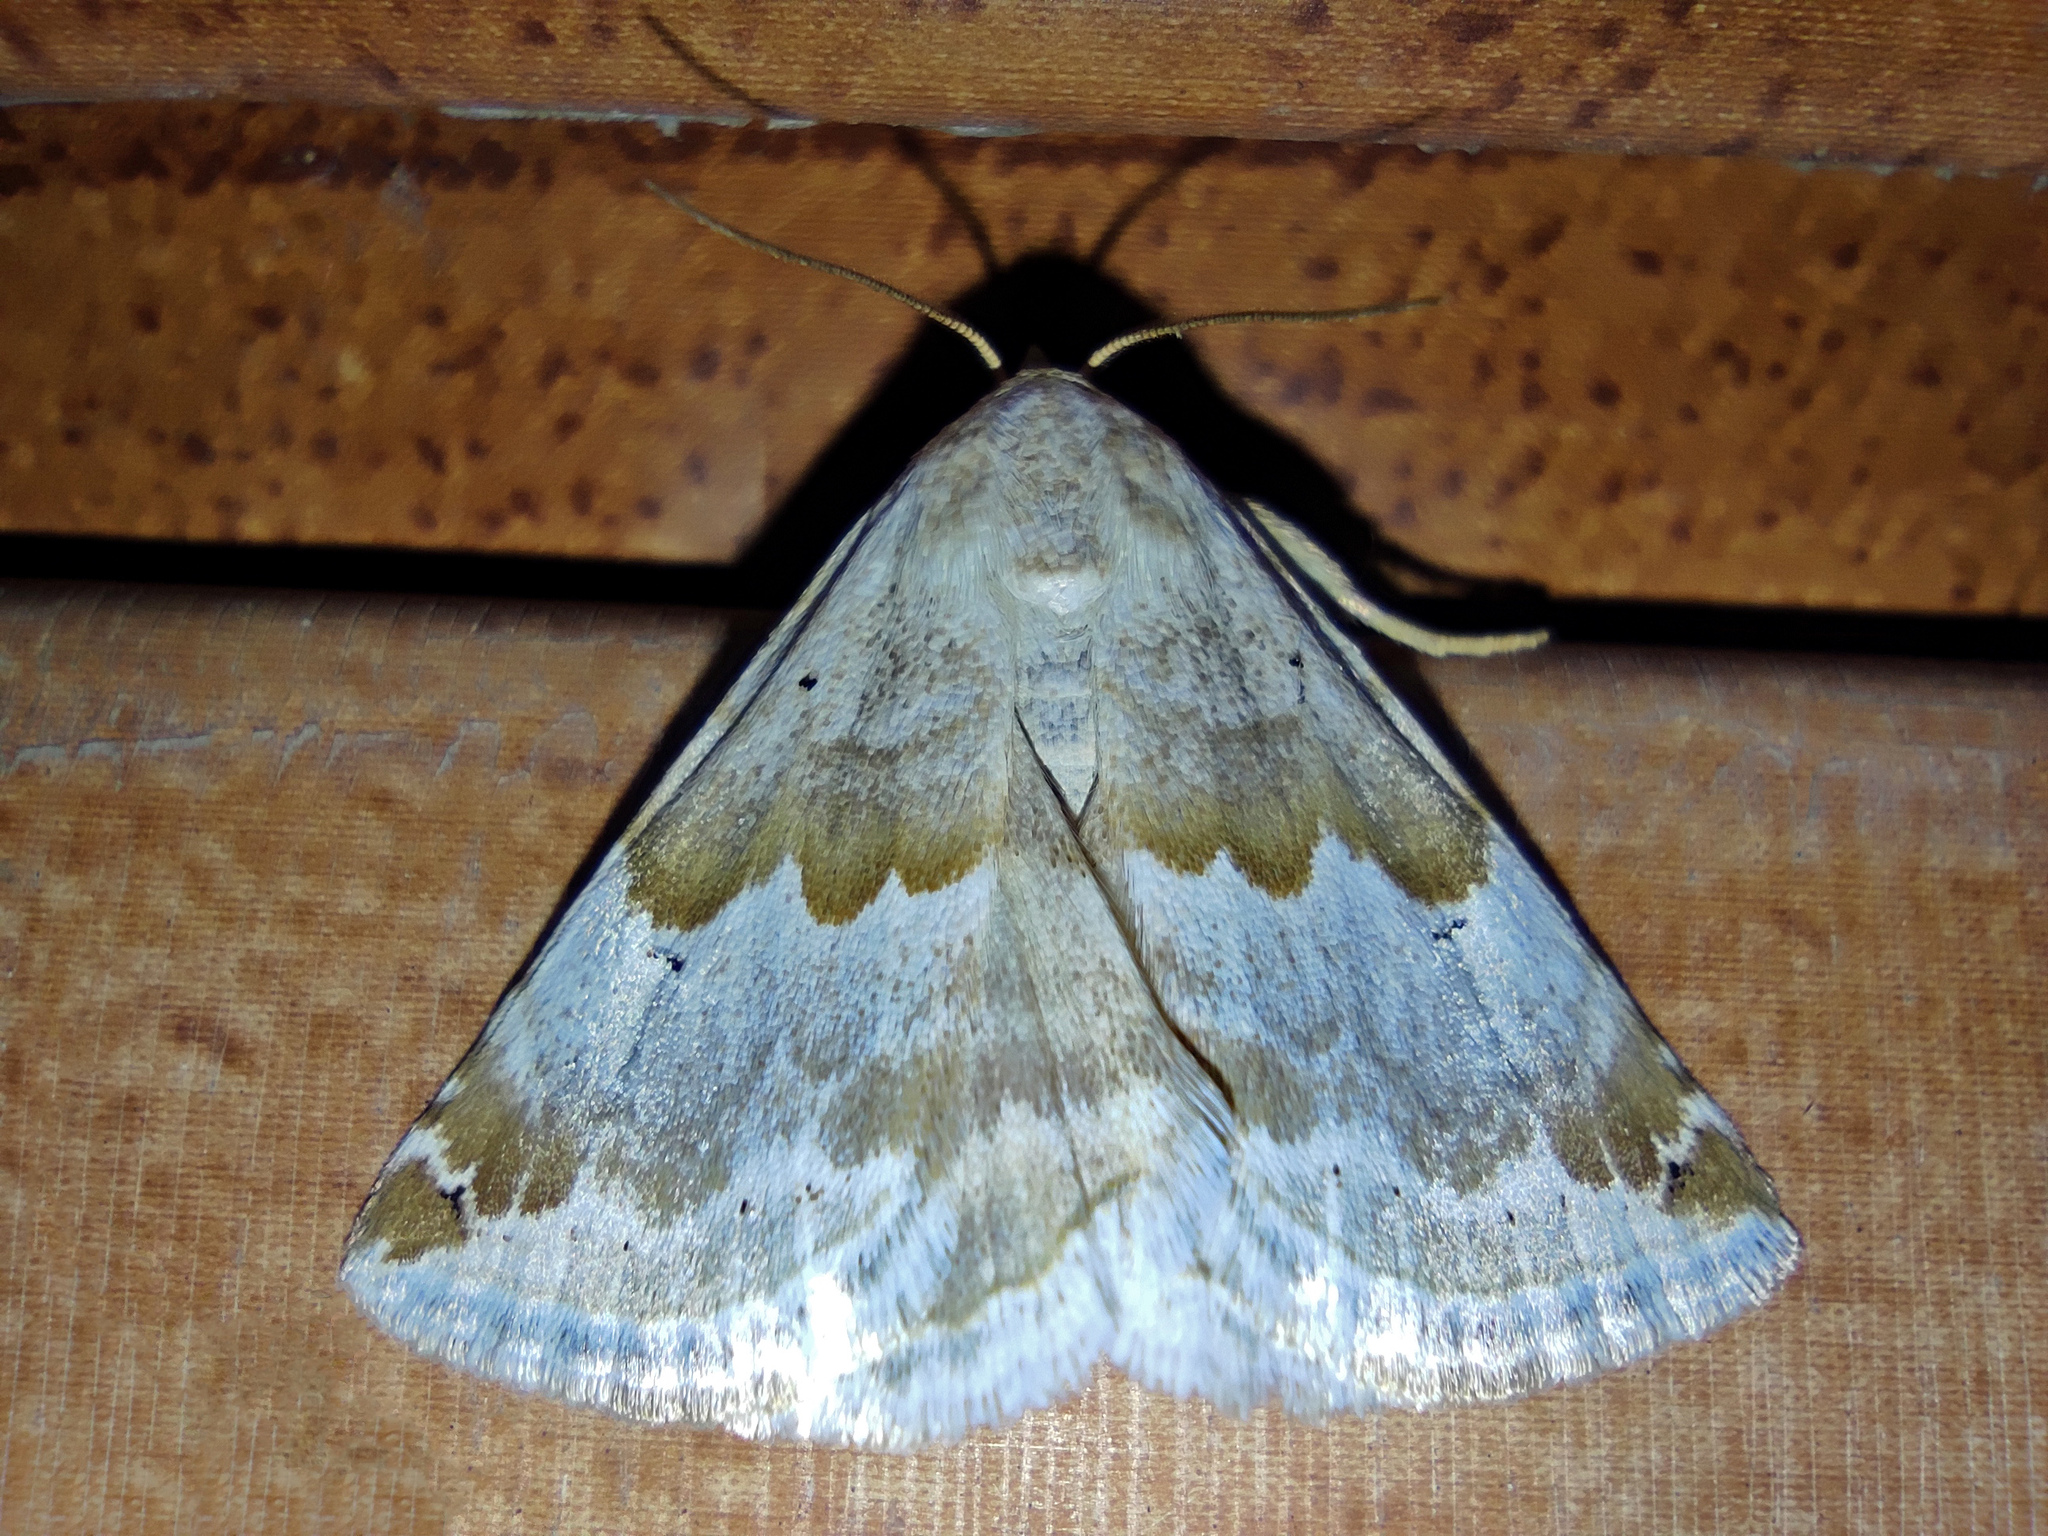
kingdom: Animalia
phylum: Arthropoda
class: Insecta
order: Lepidoptera
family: Noctuidae
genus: Eublemma
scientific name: Eublemma amoena
